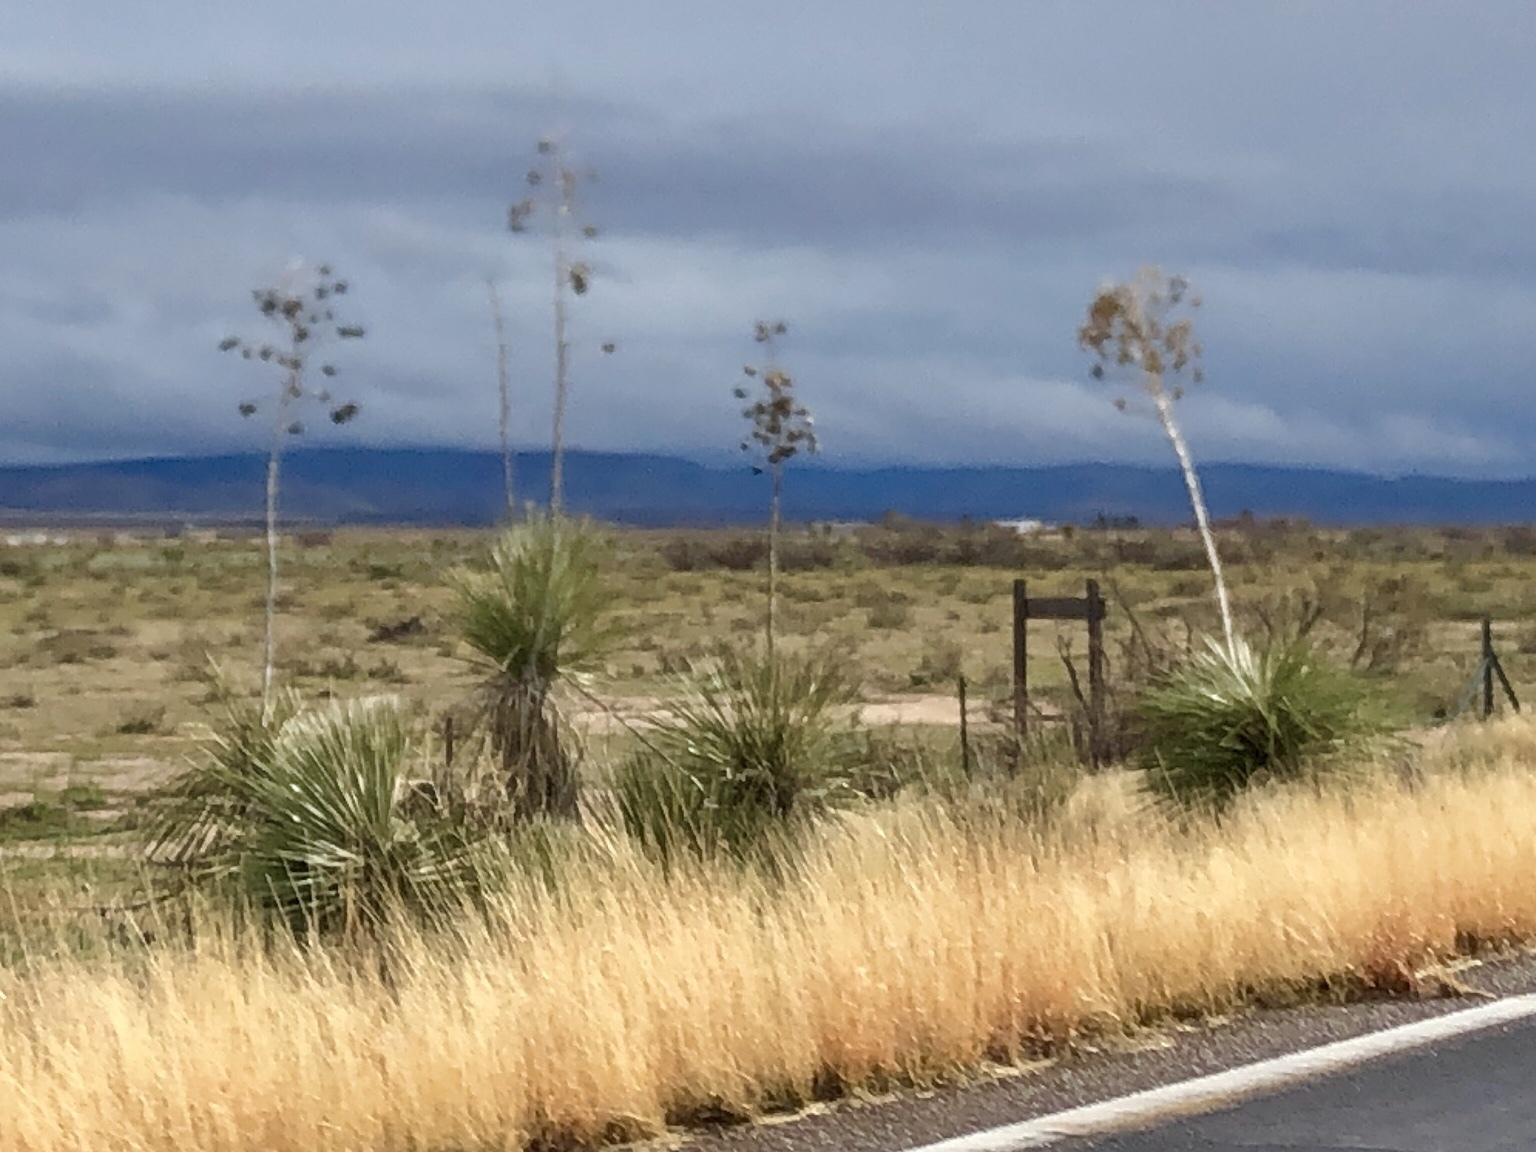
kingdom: Plantae
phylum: Tracheophyta
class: Liliopsida
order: Asparagales
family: Asparagaceae
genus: Yucca
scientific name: Yucca elata
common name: Palmella
